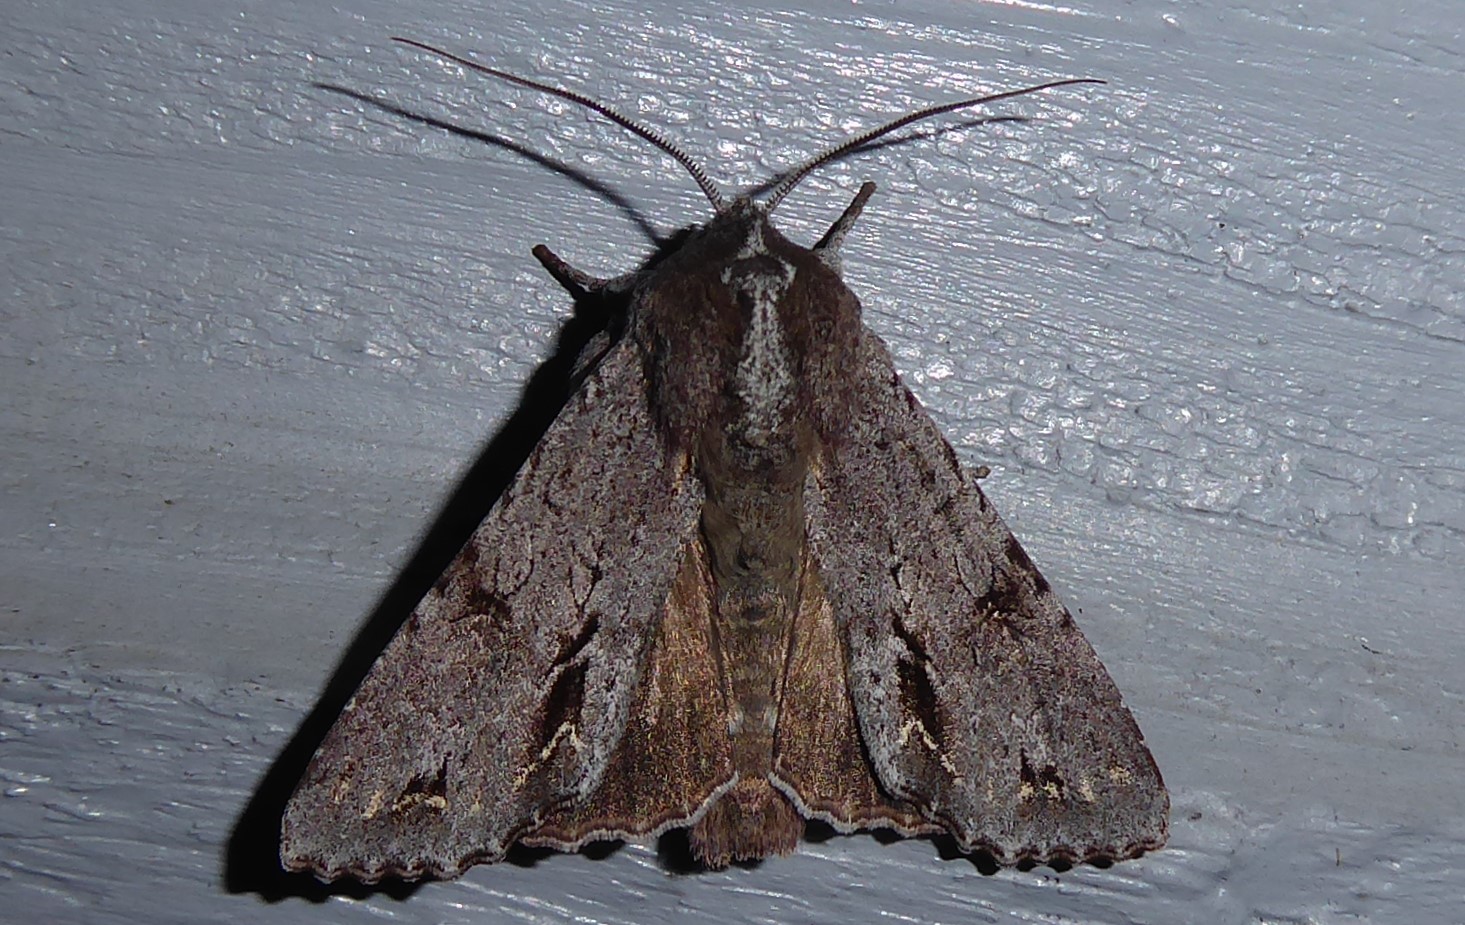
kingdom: Animalia
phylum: Arthropoda
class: Insecta
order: Lepidoptera
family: Noctuidae
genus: Ichneutica
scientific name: Ichneutica
